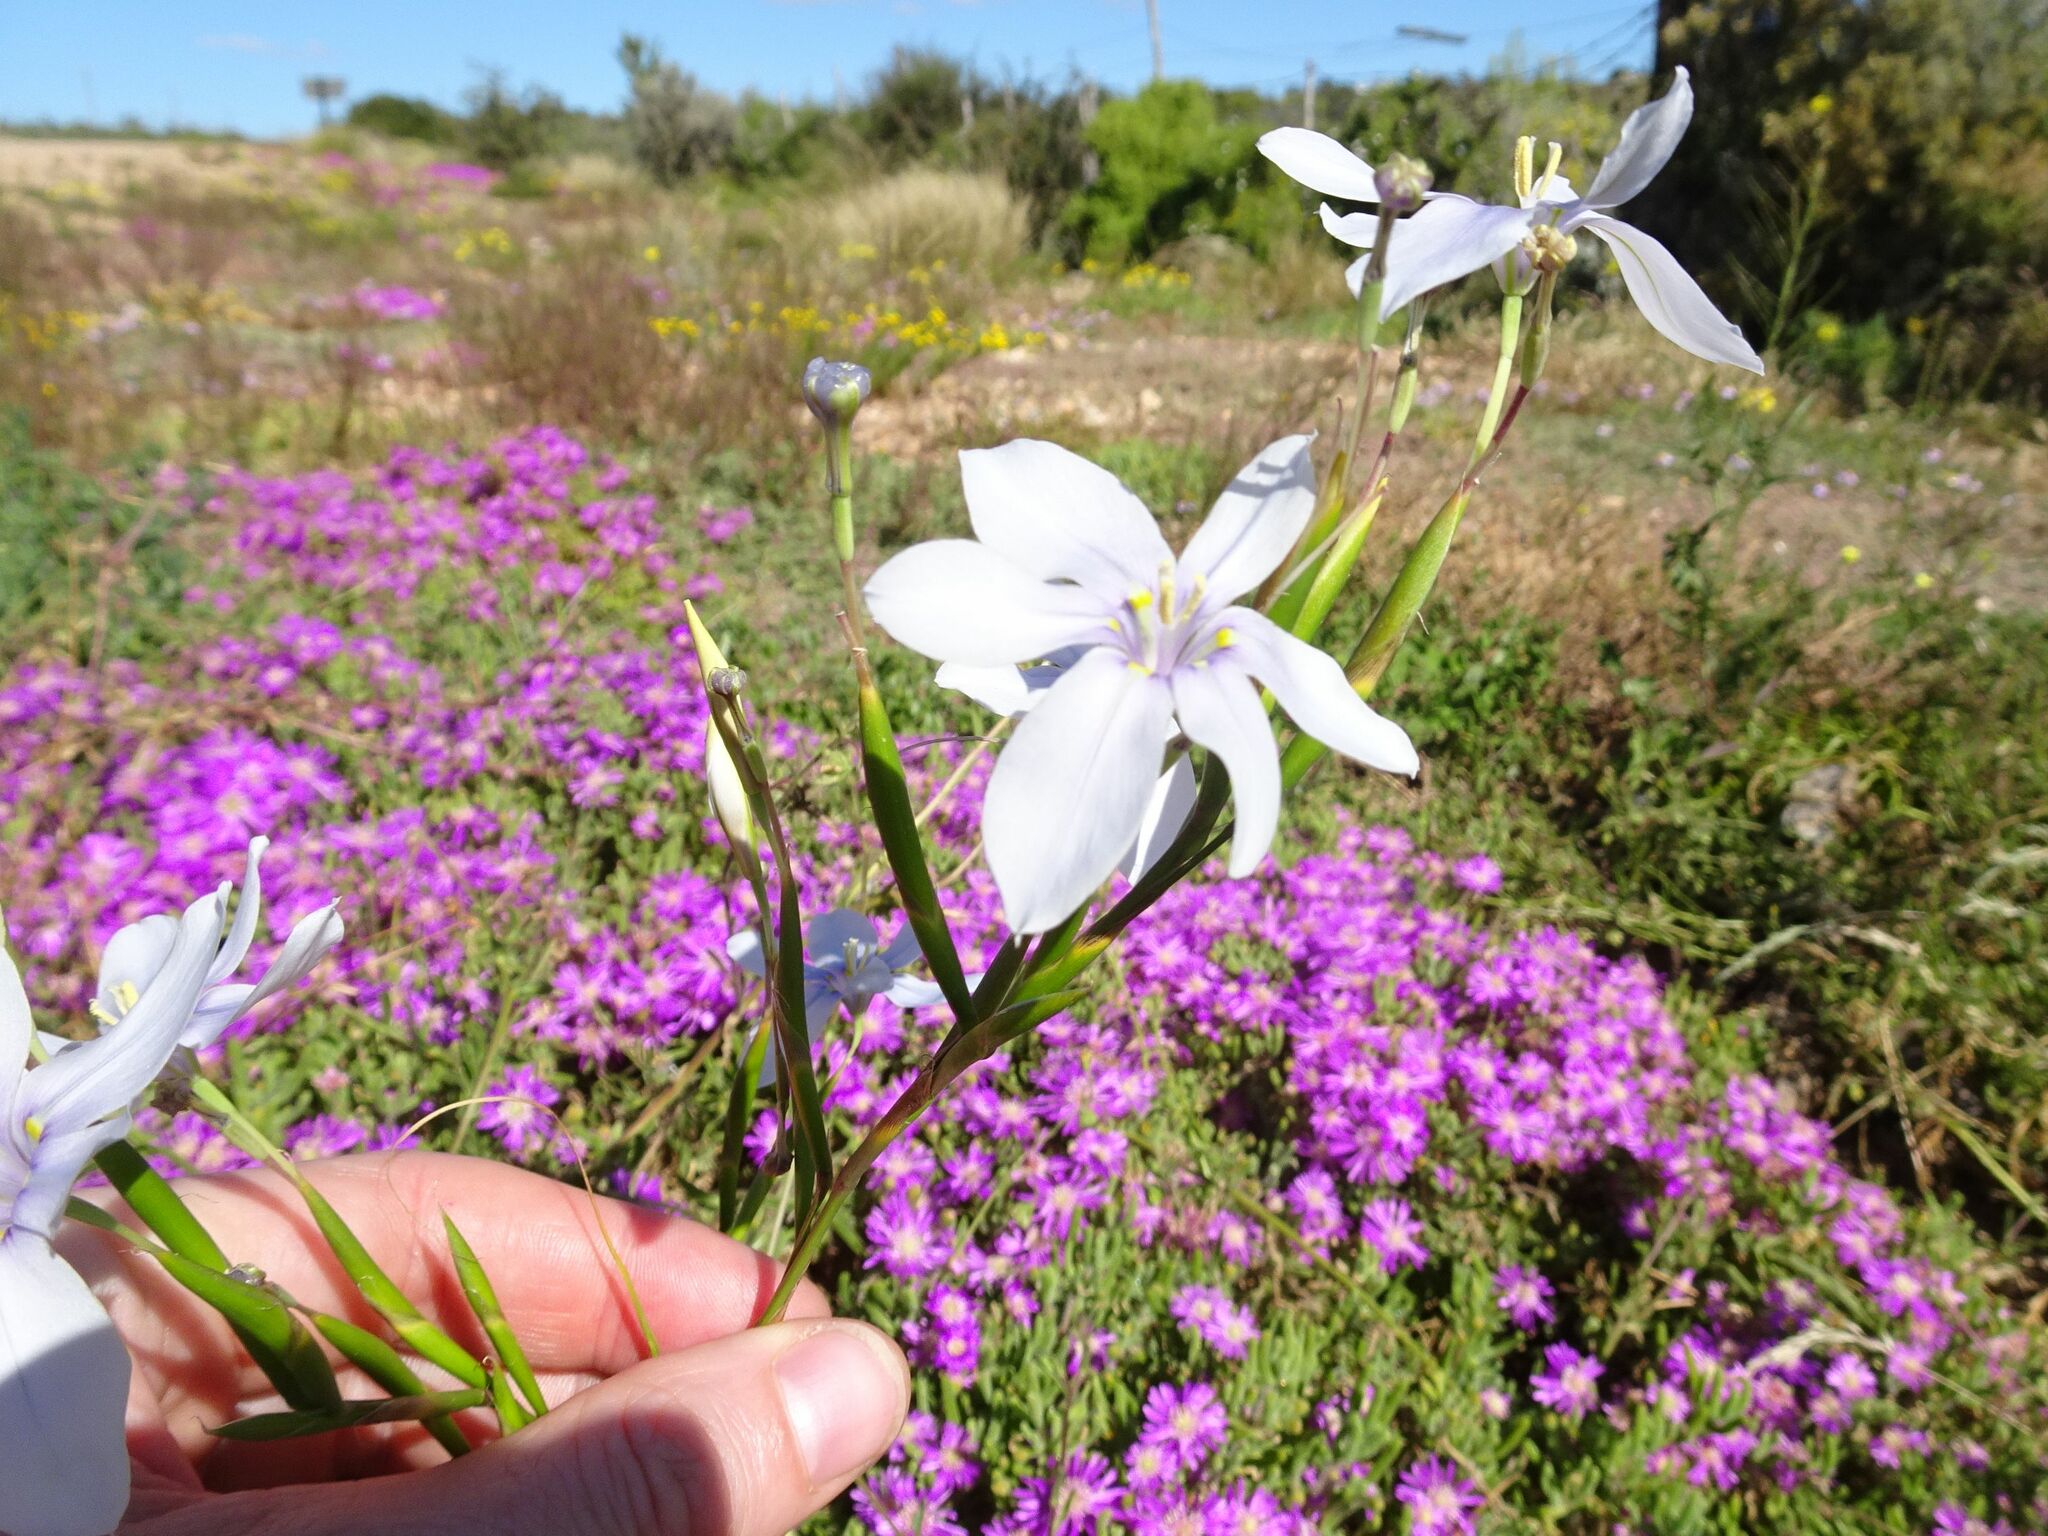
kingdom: Plantae
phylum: Tracheophyta
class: Liliopsida
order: Asparagales
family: Iridaceae
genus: Moraea
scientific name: Moraea polyanthos
